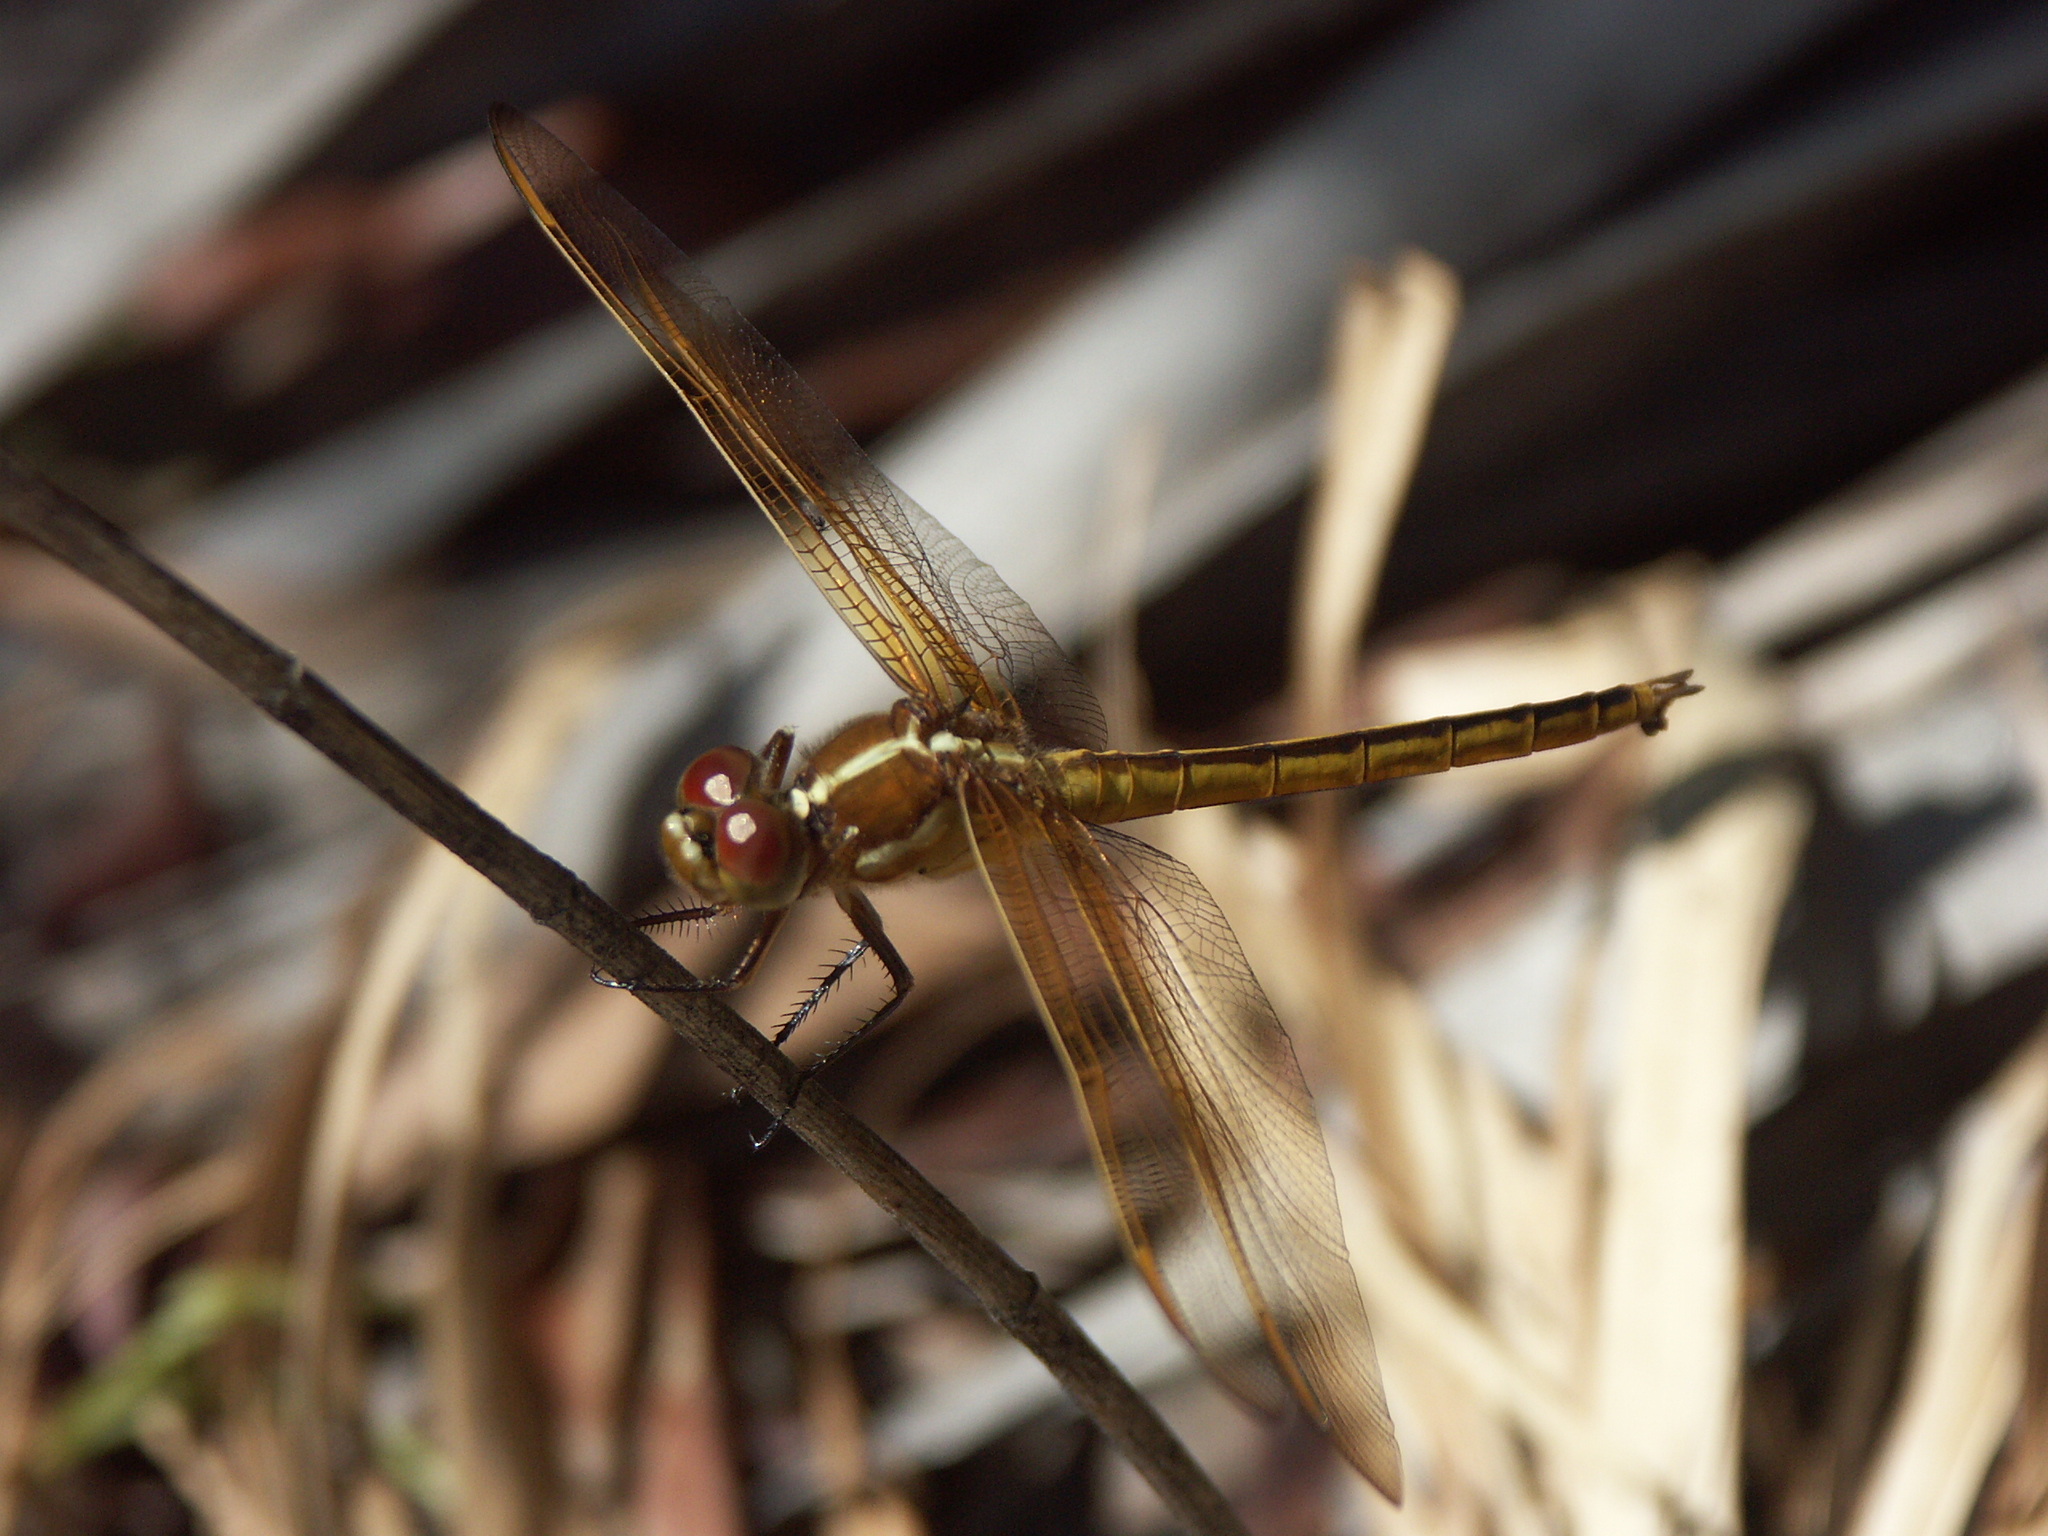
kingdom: Animalia
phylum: Arthropoda
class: Insecta
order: Odonata
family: Libellulidae
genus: Libellula
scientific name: Libellula auripennis
